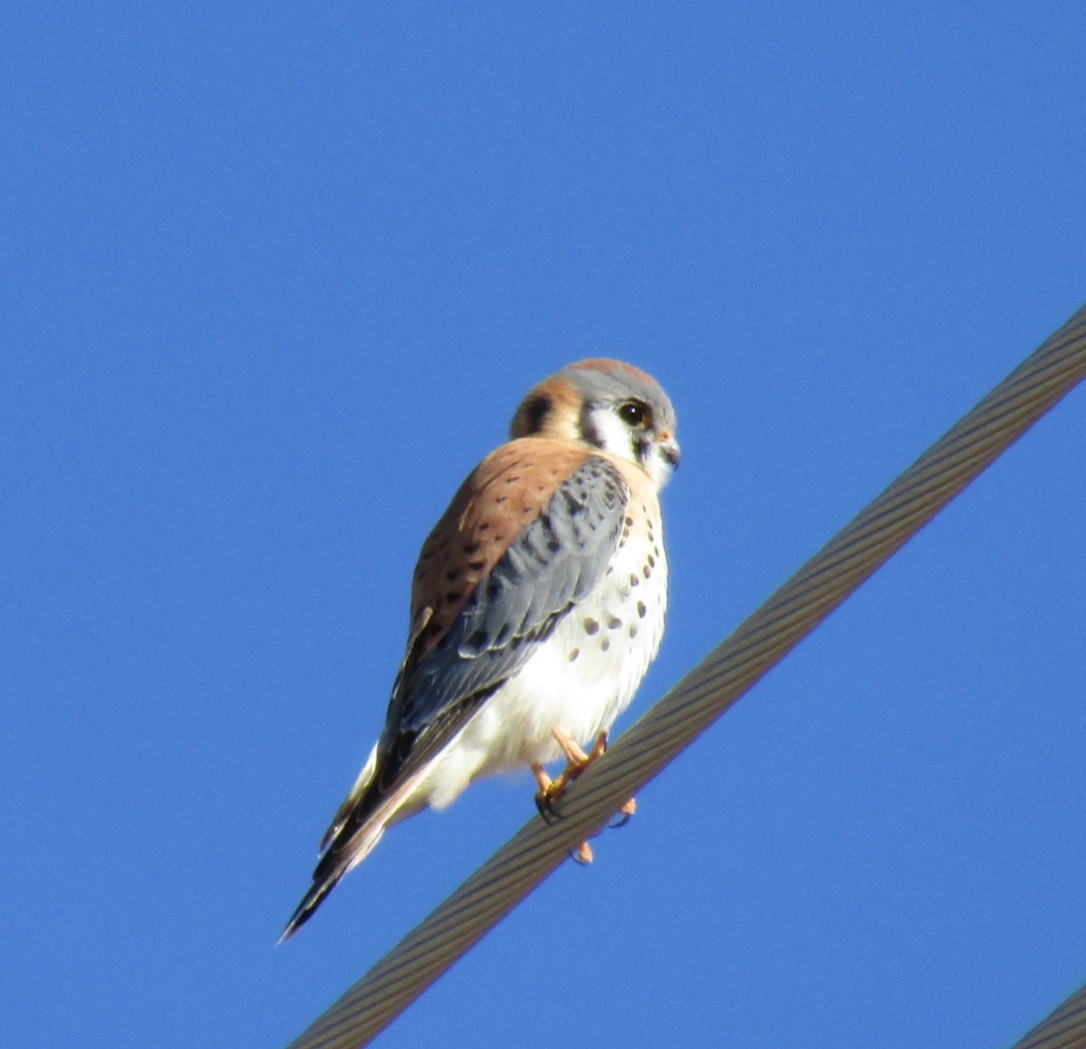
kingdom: Animalia
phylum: Chordata
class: Aves
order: Falconiformes
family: Falconidae
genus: Falco
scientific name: Falco sparverius
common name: American kestrel
